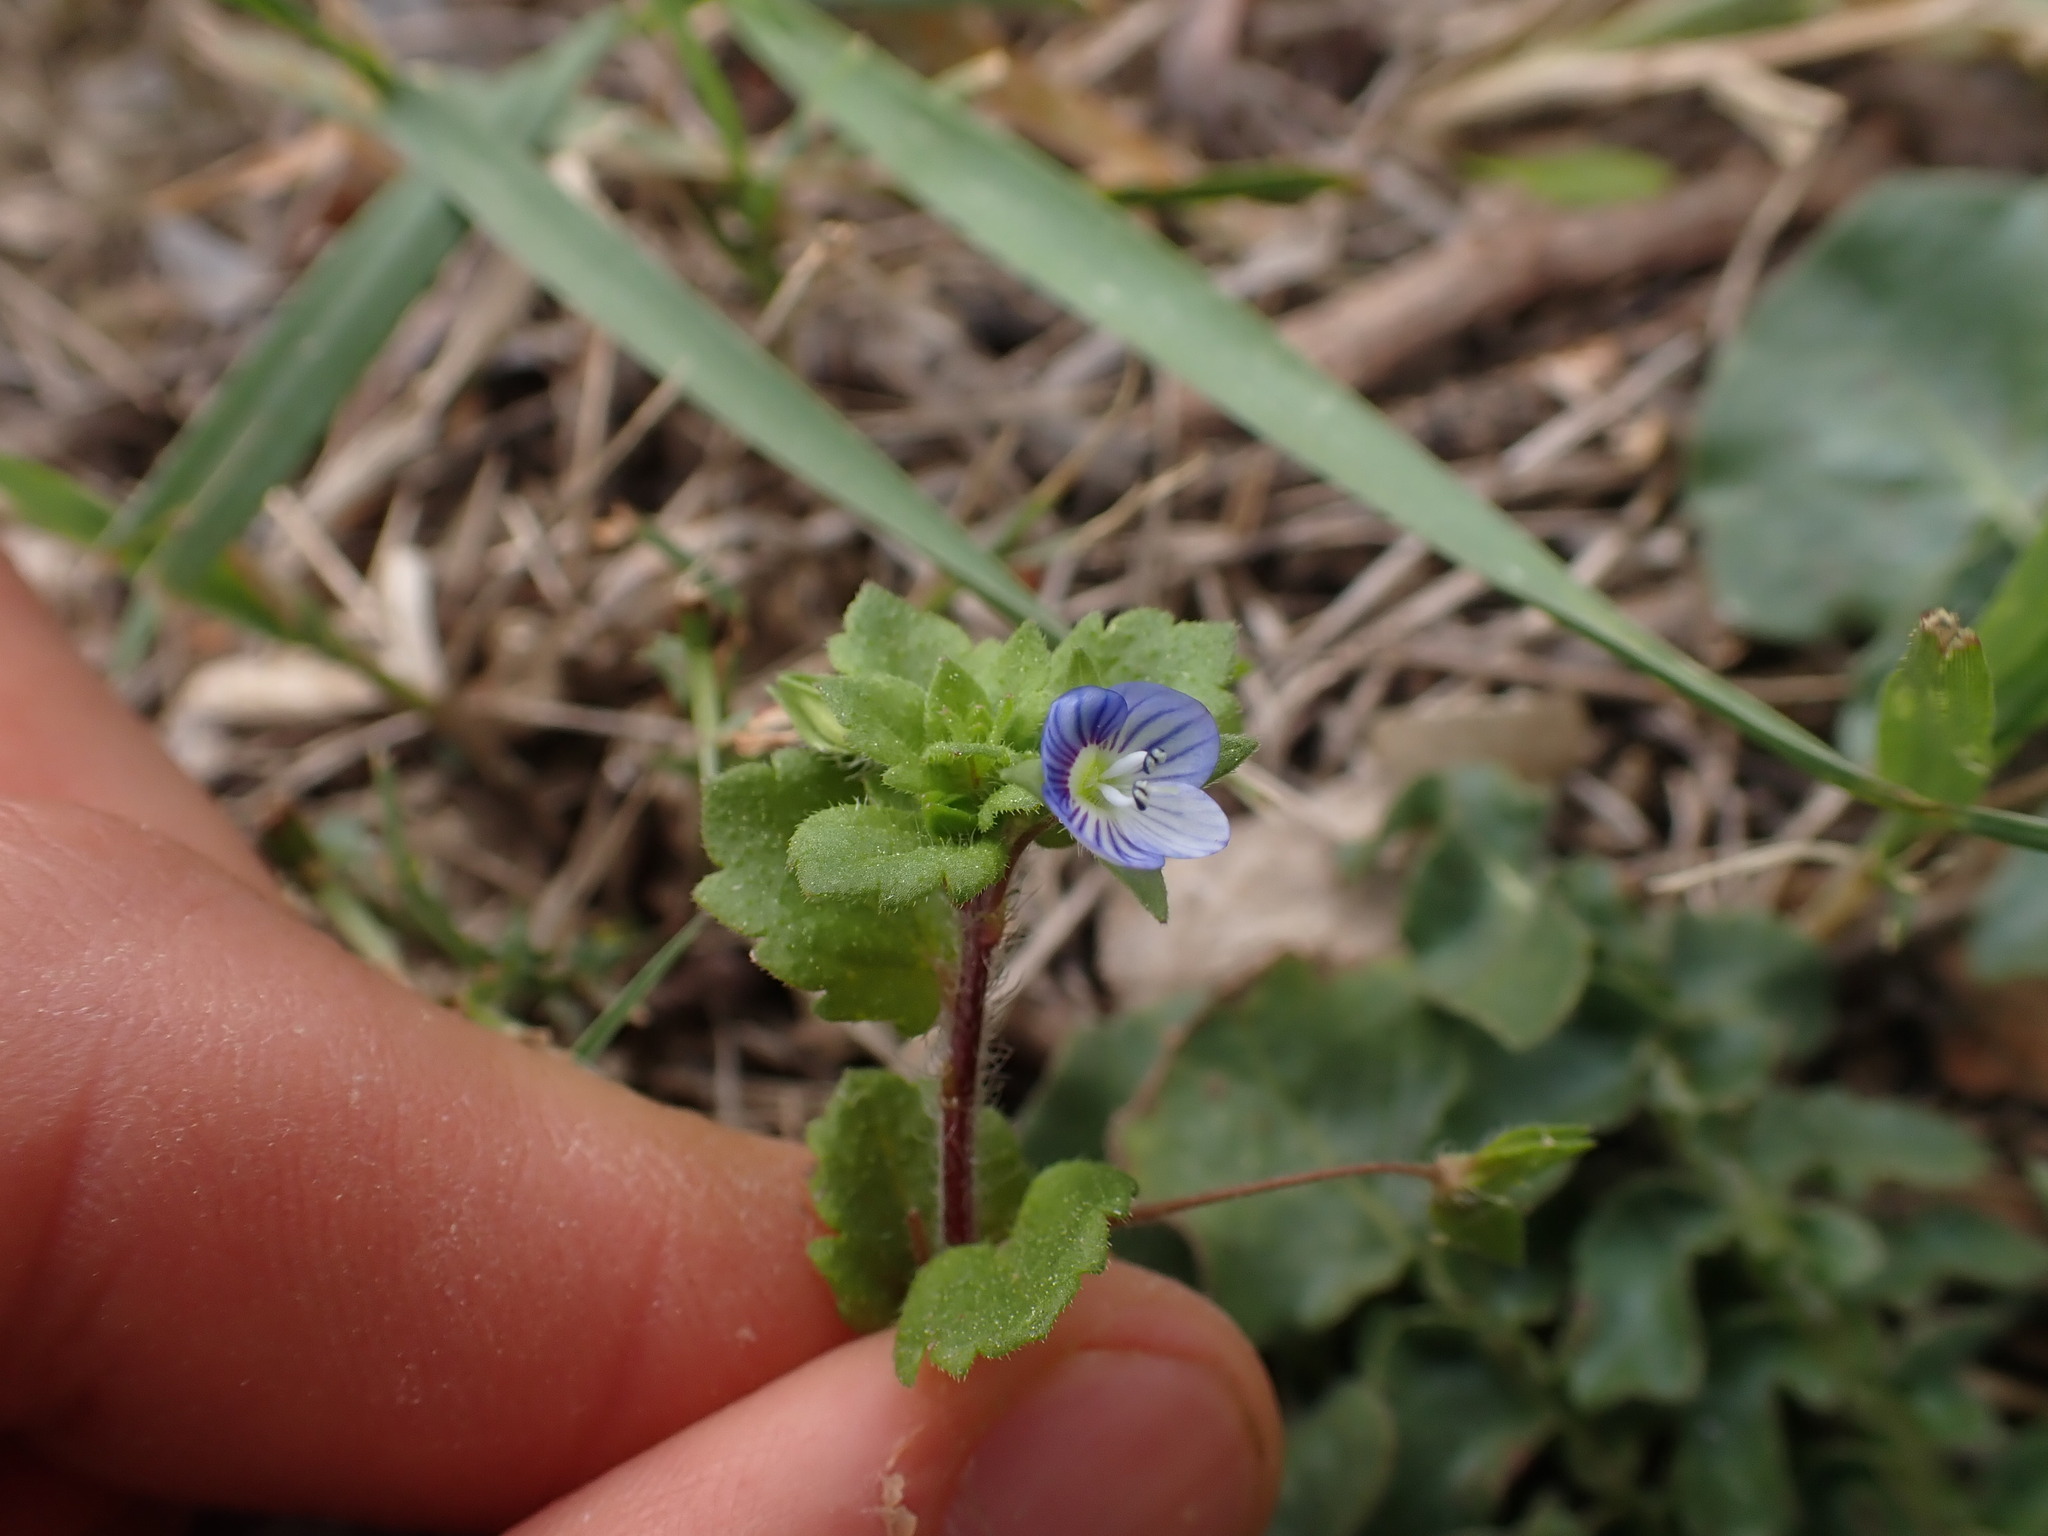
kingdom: Plantae
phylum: Tracheophyta
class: Magnoliopsida
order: Lamiales
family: Plantaginaceae
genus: Veronica
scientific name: Veronica persica
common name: Common field-speedwell
